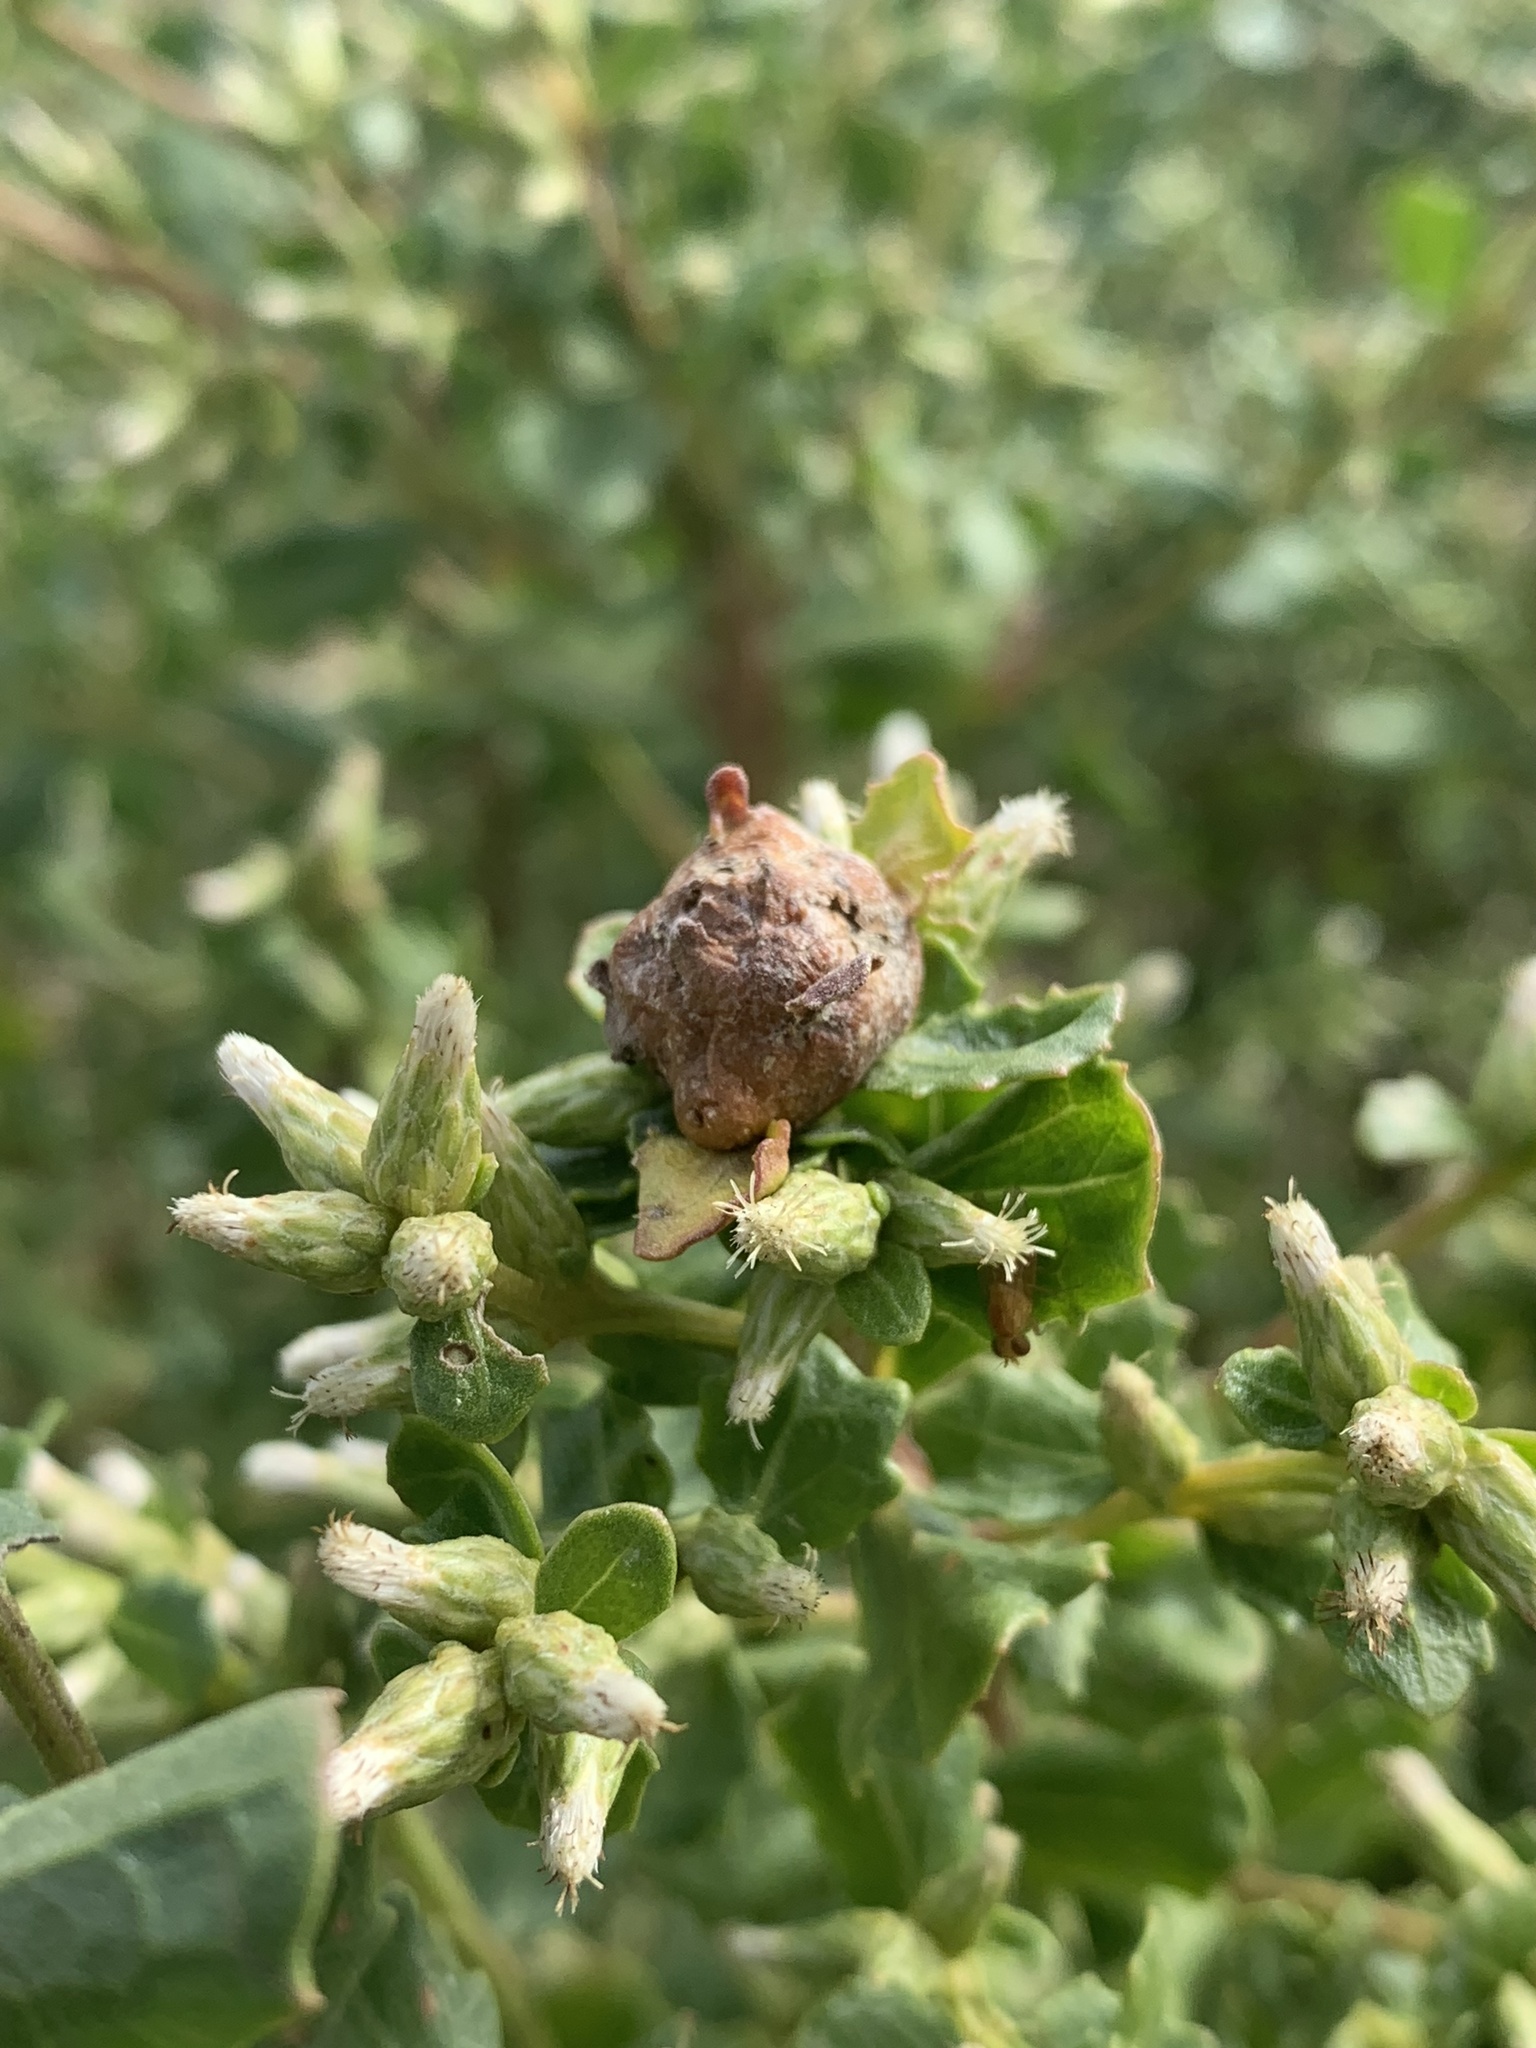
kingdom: Animalia
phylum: Arthropoda
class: Insecta
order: Diptera
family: Cecidomyiidae
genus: Rhopalomyia
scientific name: Rhopalomyia californica
